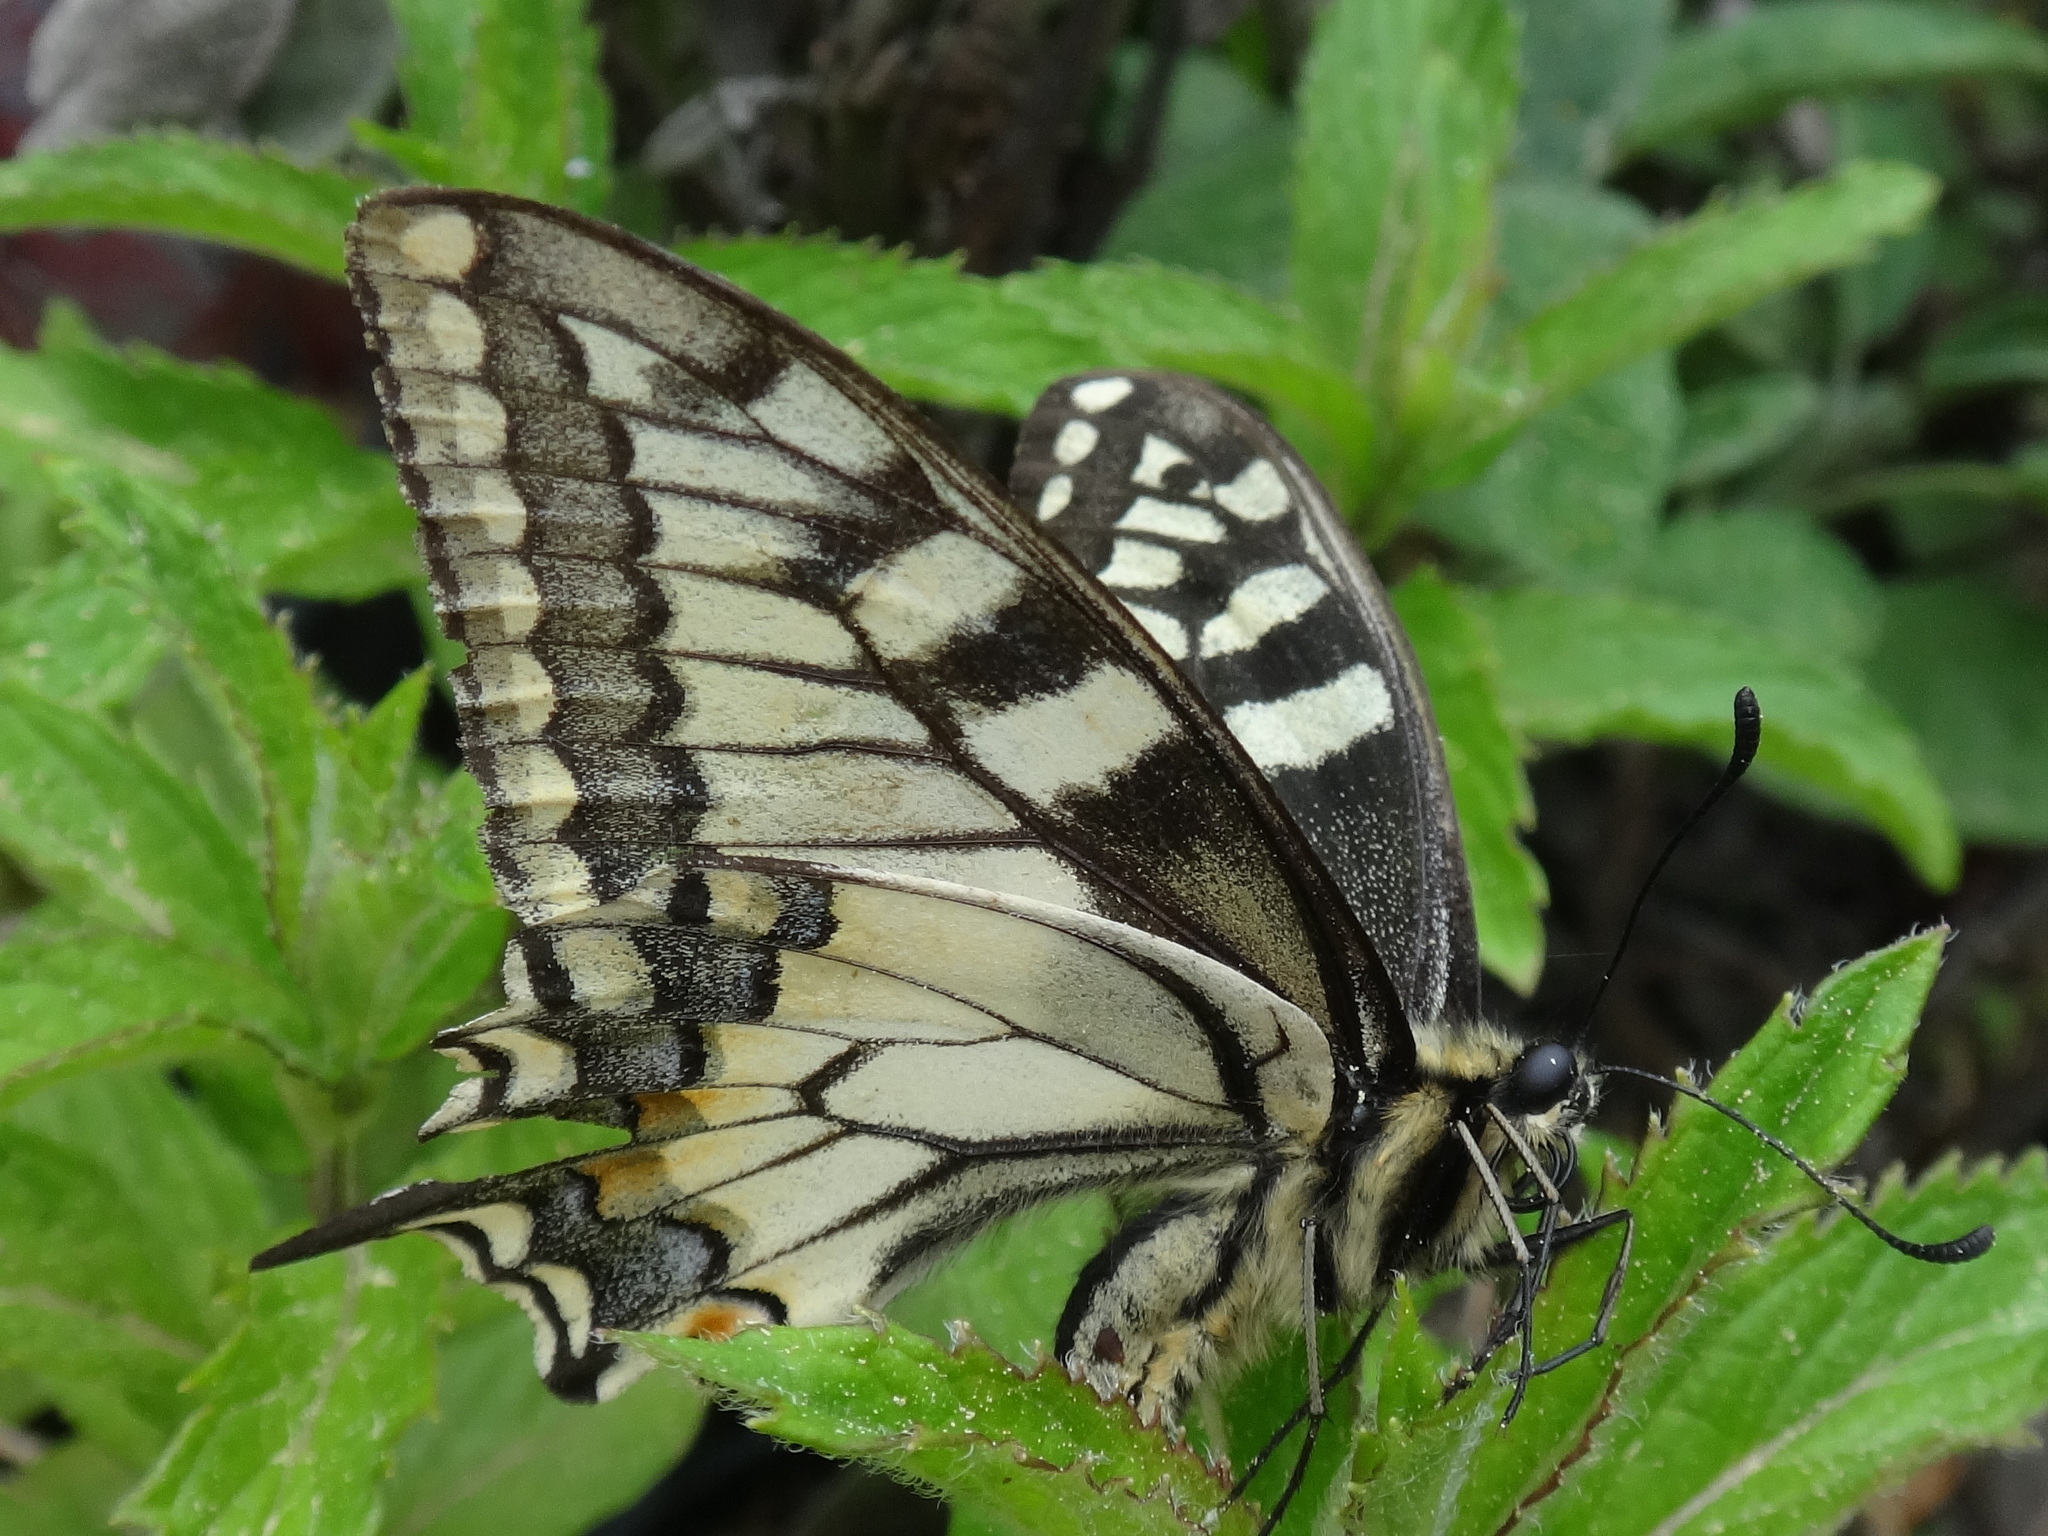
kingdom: Animalia
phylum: Arthropoda
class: Insecta
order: Lepidoptera
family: Papilionidae
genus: Papilio
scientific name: Papilio machaon
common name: Swallowtail
